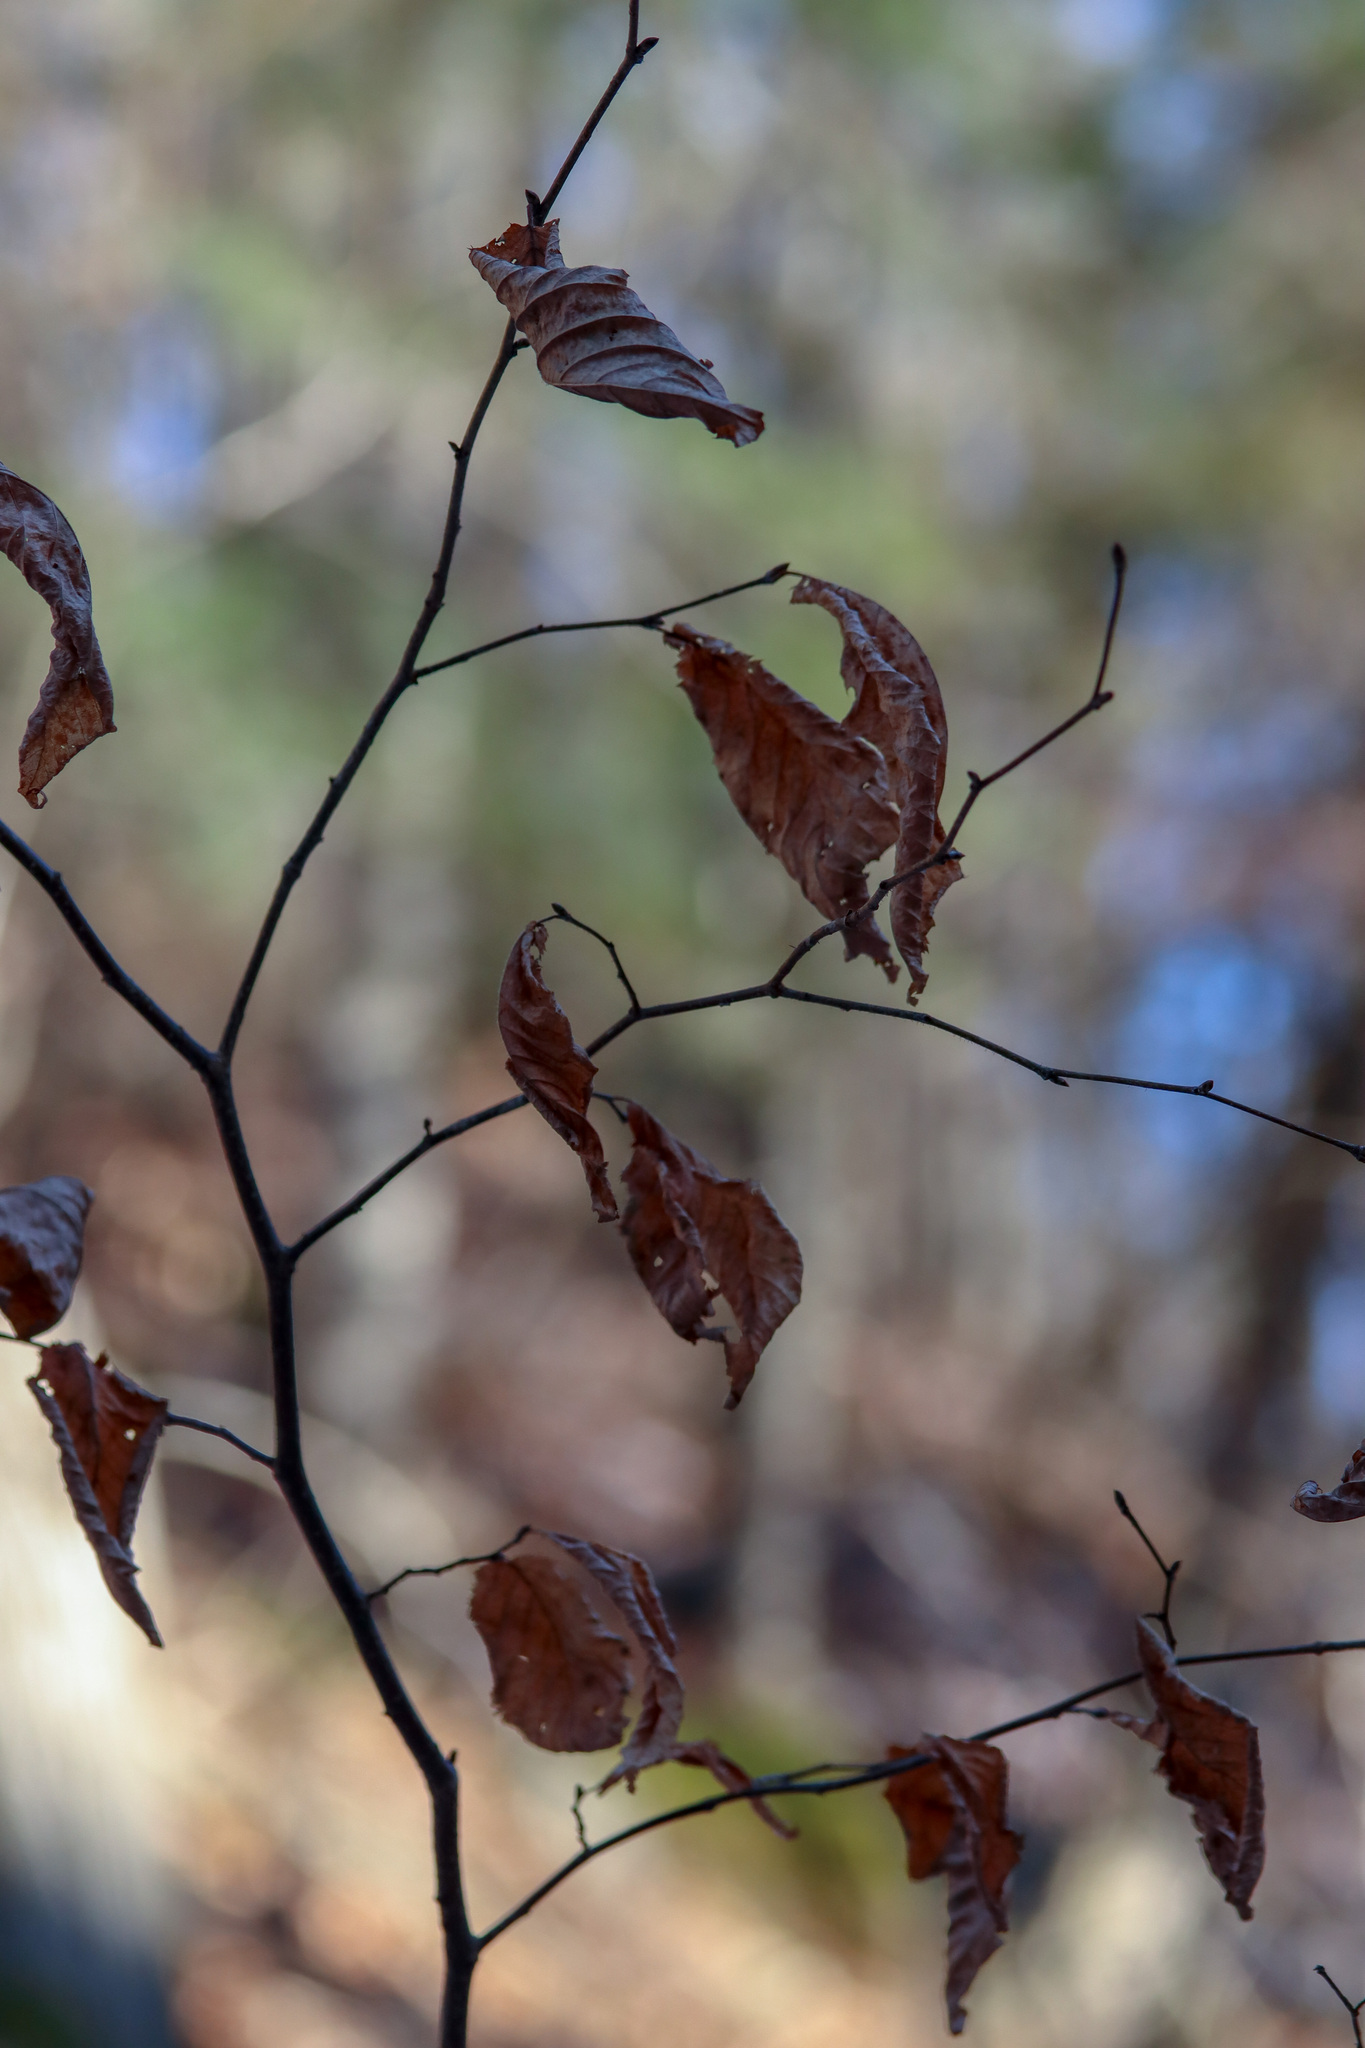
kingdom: Plantae
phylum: Tracheophyta
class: Magnoliopsida
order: Fagales
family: Betulaceae
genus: Ostrya
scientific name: Ostrya virginiana
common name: Ironwood
